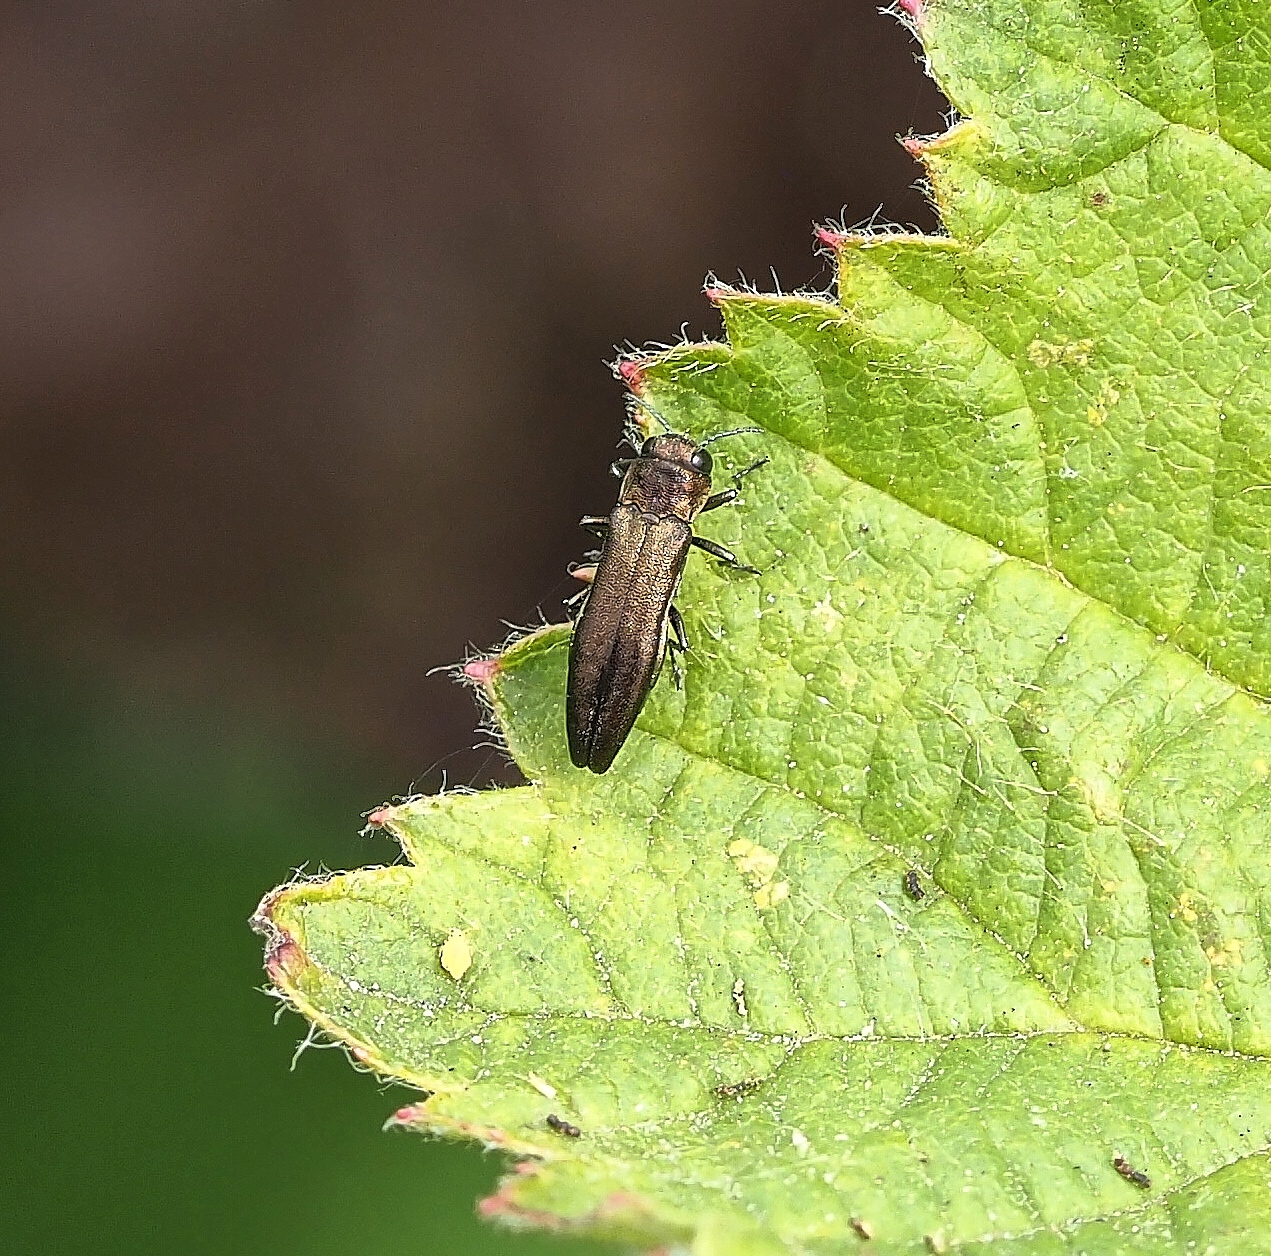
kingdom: Animalia
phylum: Arthropoda
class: Insecta
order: Coleoptera
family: Buprestidae
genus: Agrilus
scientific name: Agrilus cuprescens
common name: Rose stem girdler
